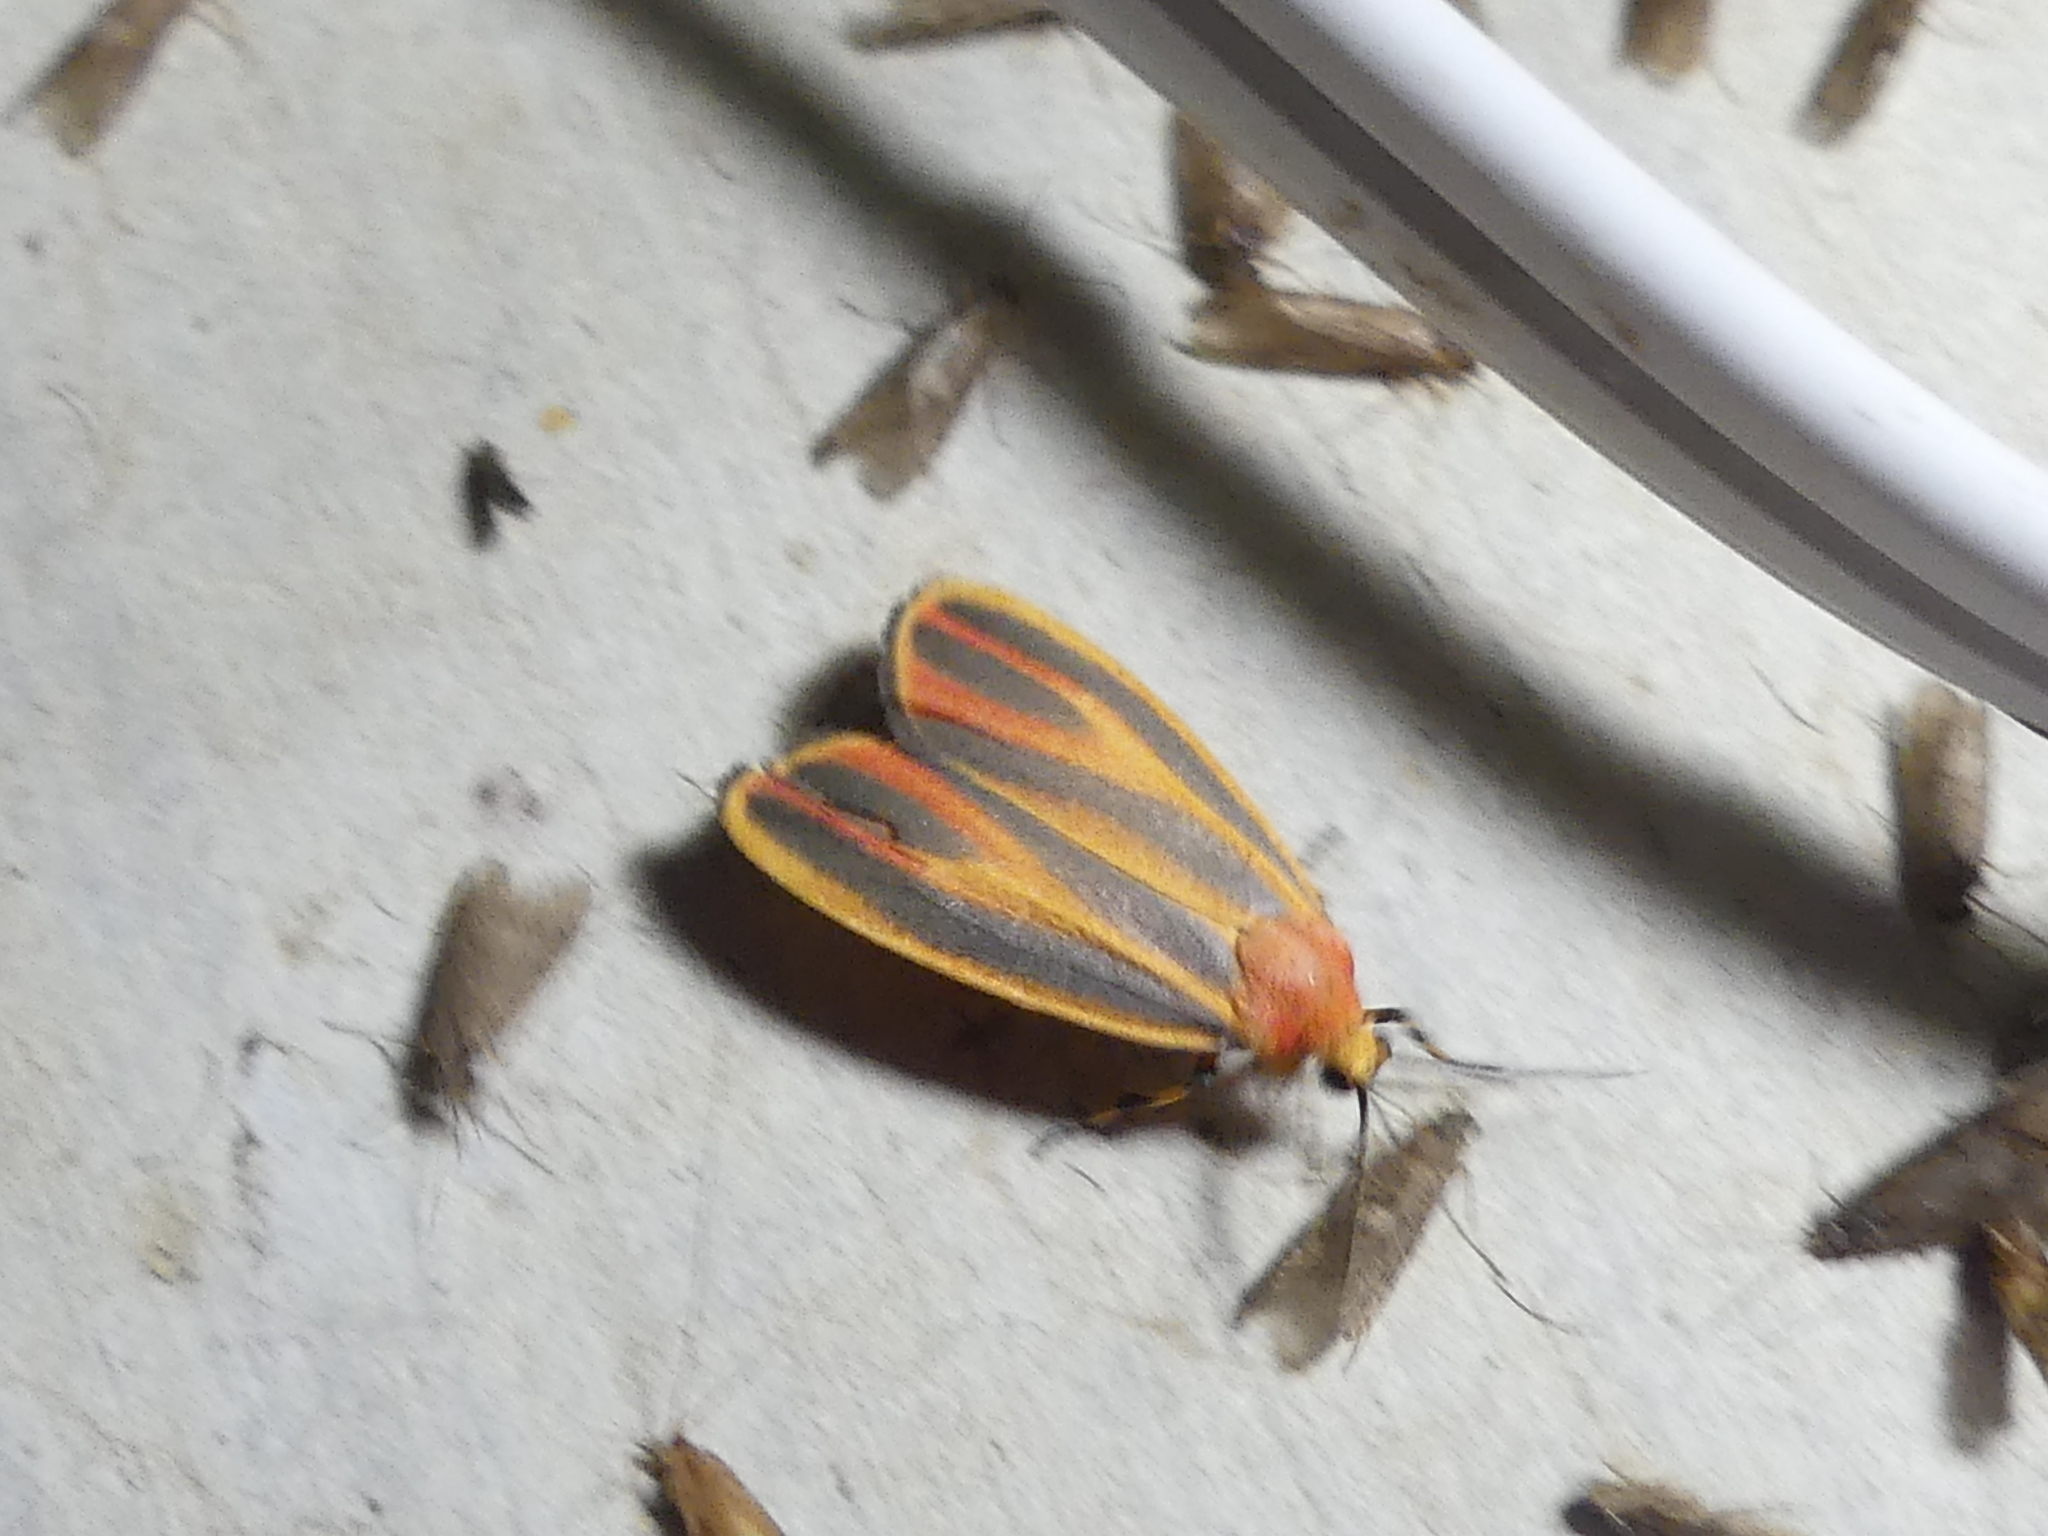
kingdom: Animalia
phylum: Arthropoda
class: Insecta
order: Lepidoptera
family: Erebidae
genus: Hypoprepia
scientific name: Hypoprepia fucosa
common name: Painted lichen moth
